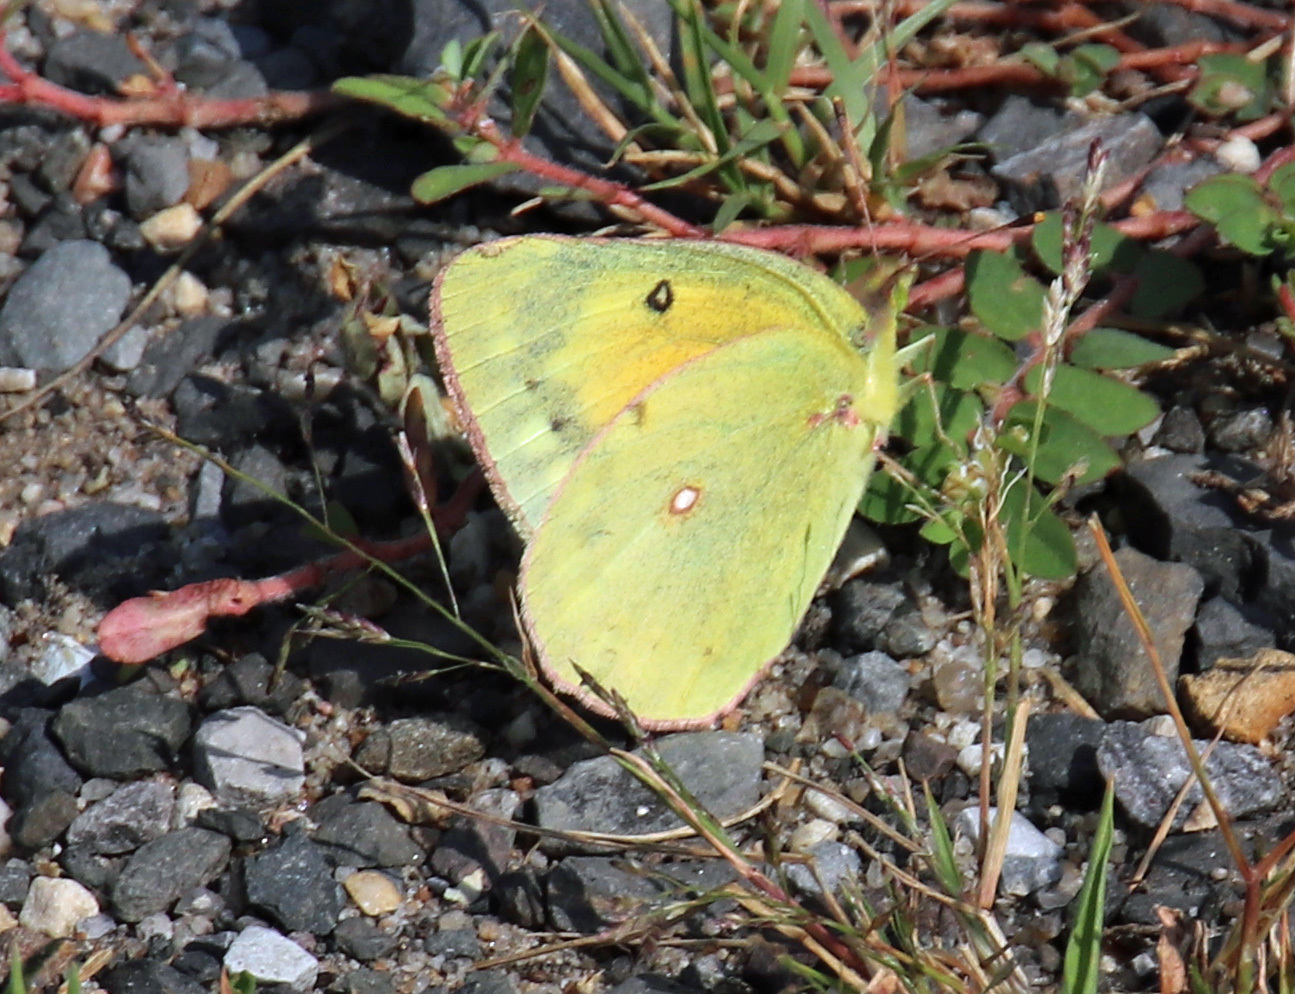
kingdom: Animalia
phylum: Arthropoda
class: Insecta
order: Lepidoptera
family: Pieridae
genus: Colias
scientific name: Colias eurytheme
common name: Alfalfa butterfly
